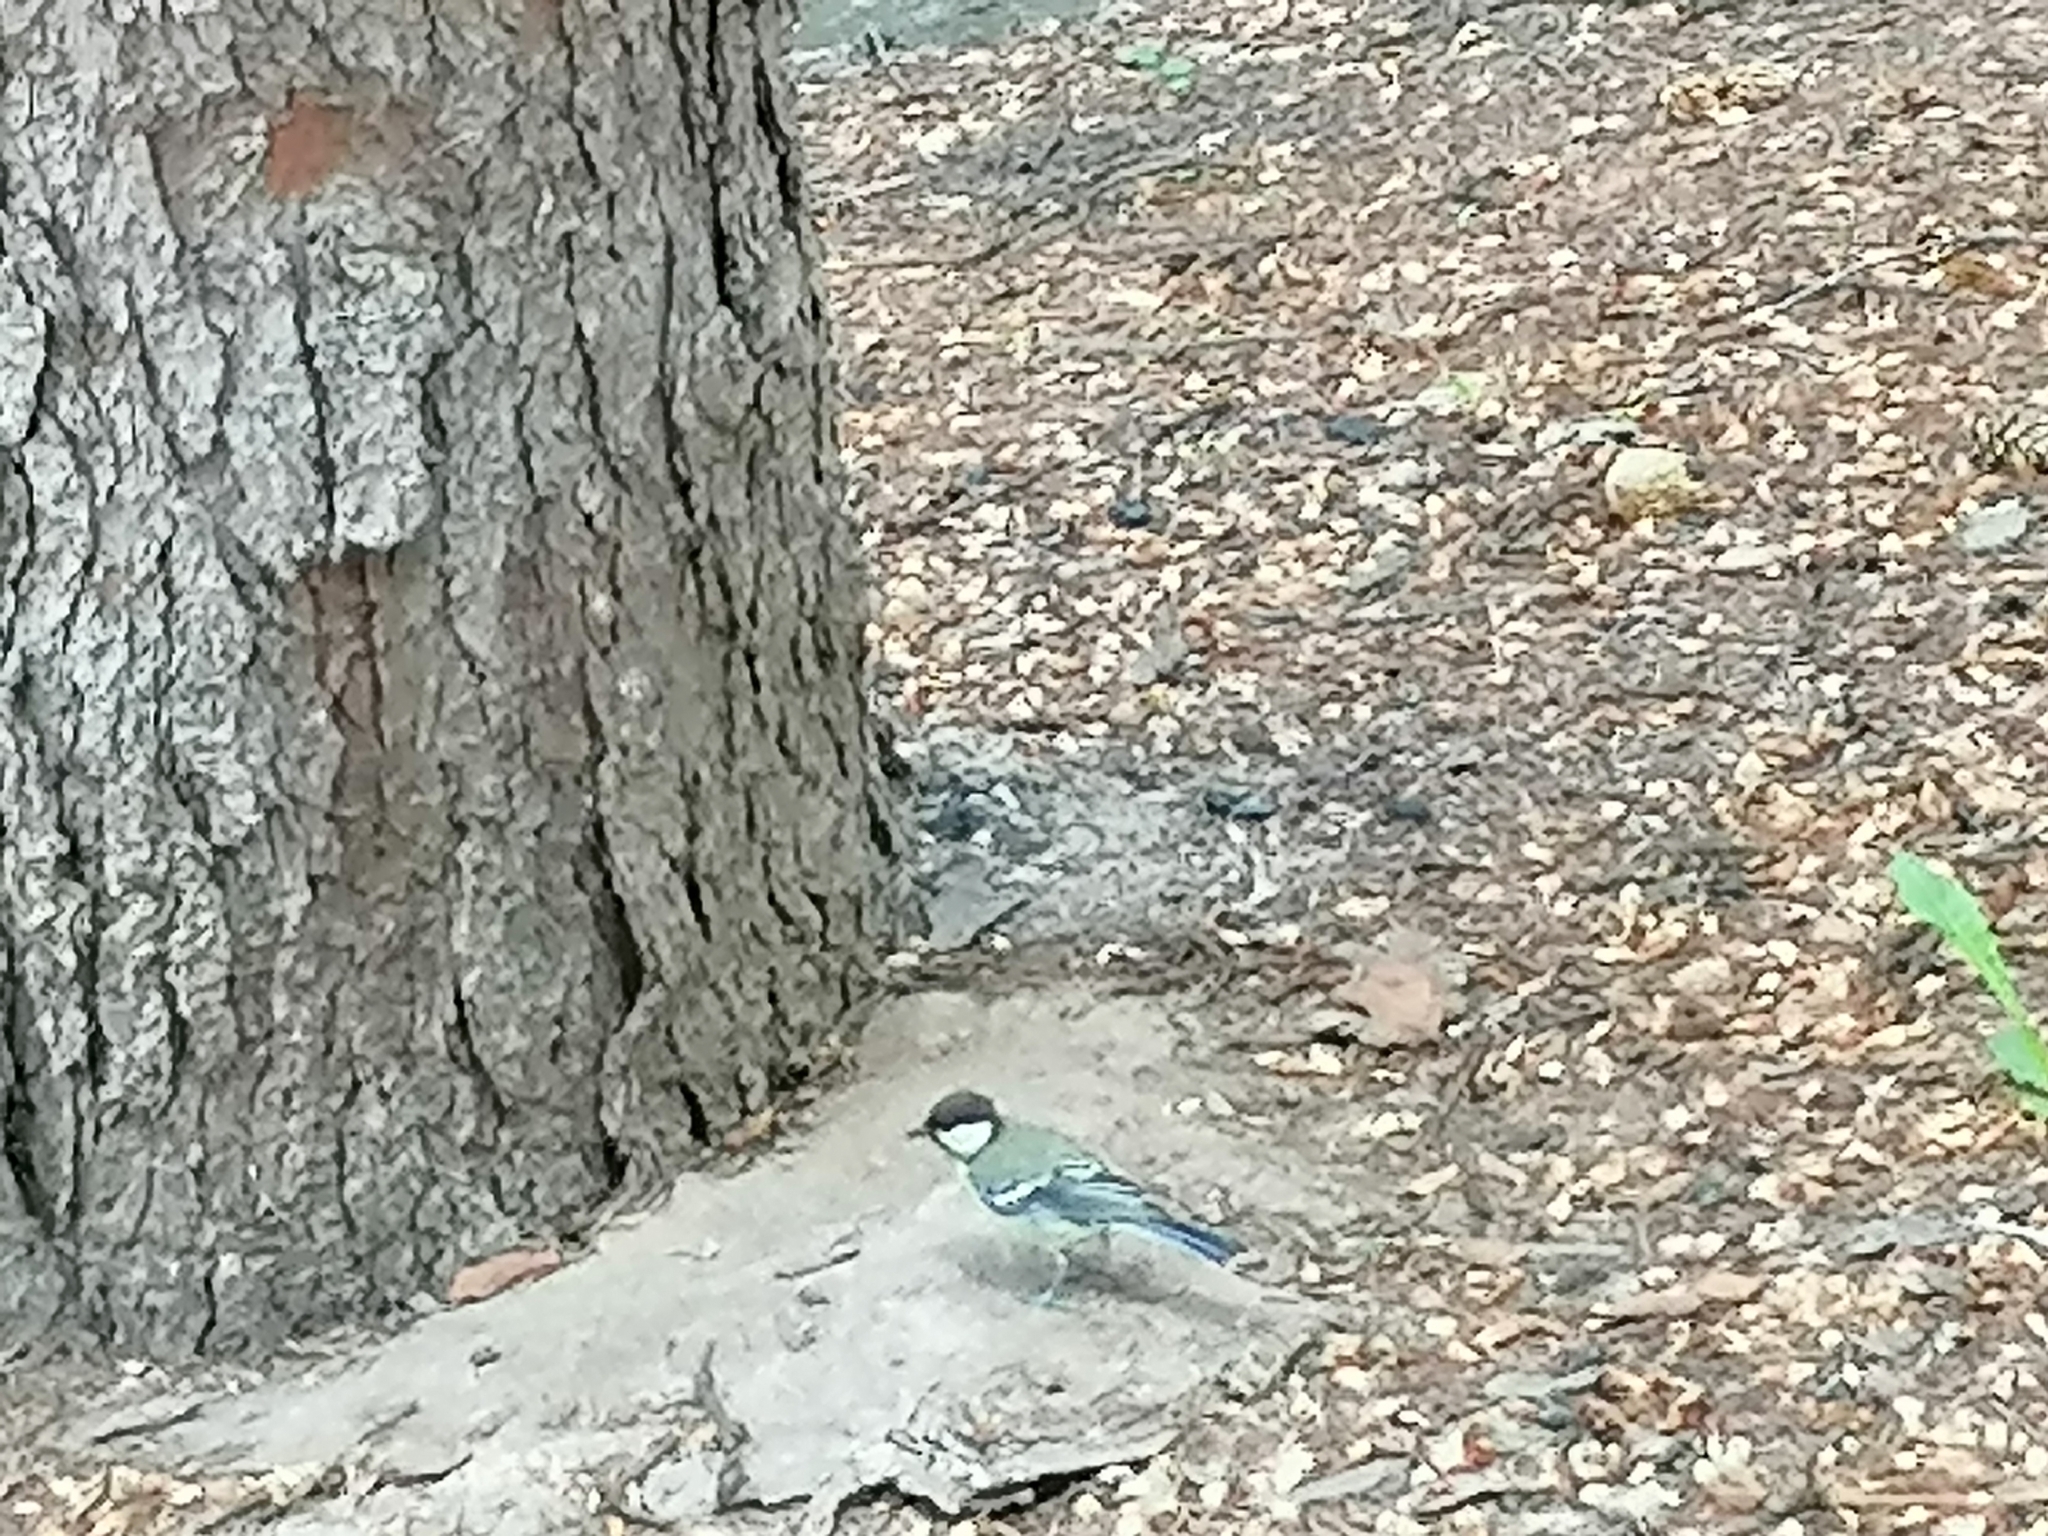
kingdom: Animalia
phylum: Chordata
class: Aves
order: Passeriformes
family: Paridae
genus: Parus
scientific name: Parus major
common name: Great tit
